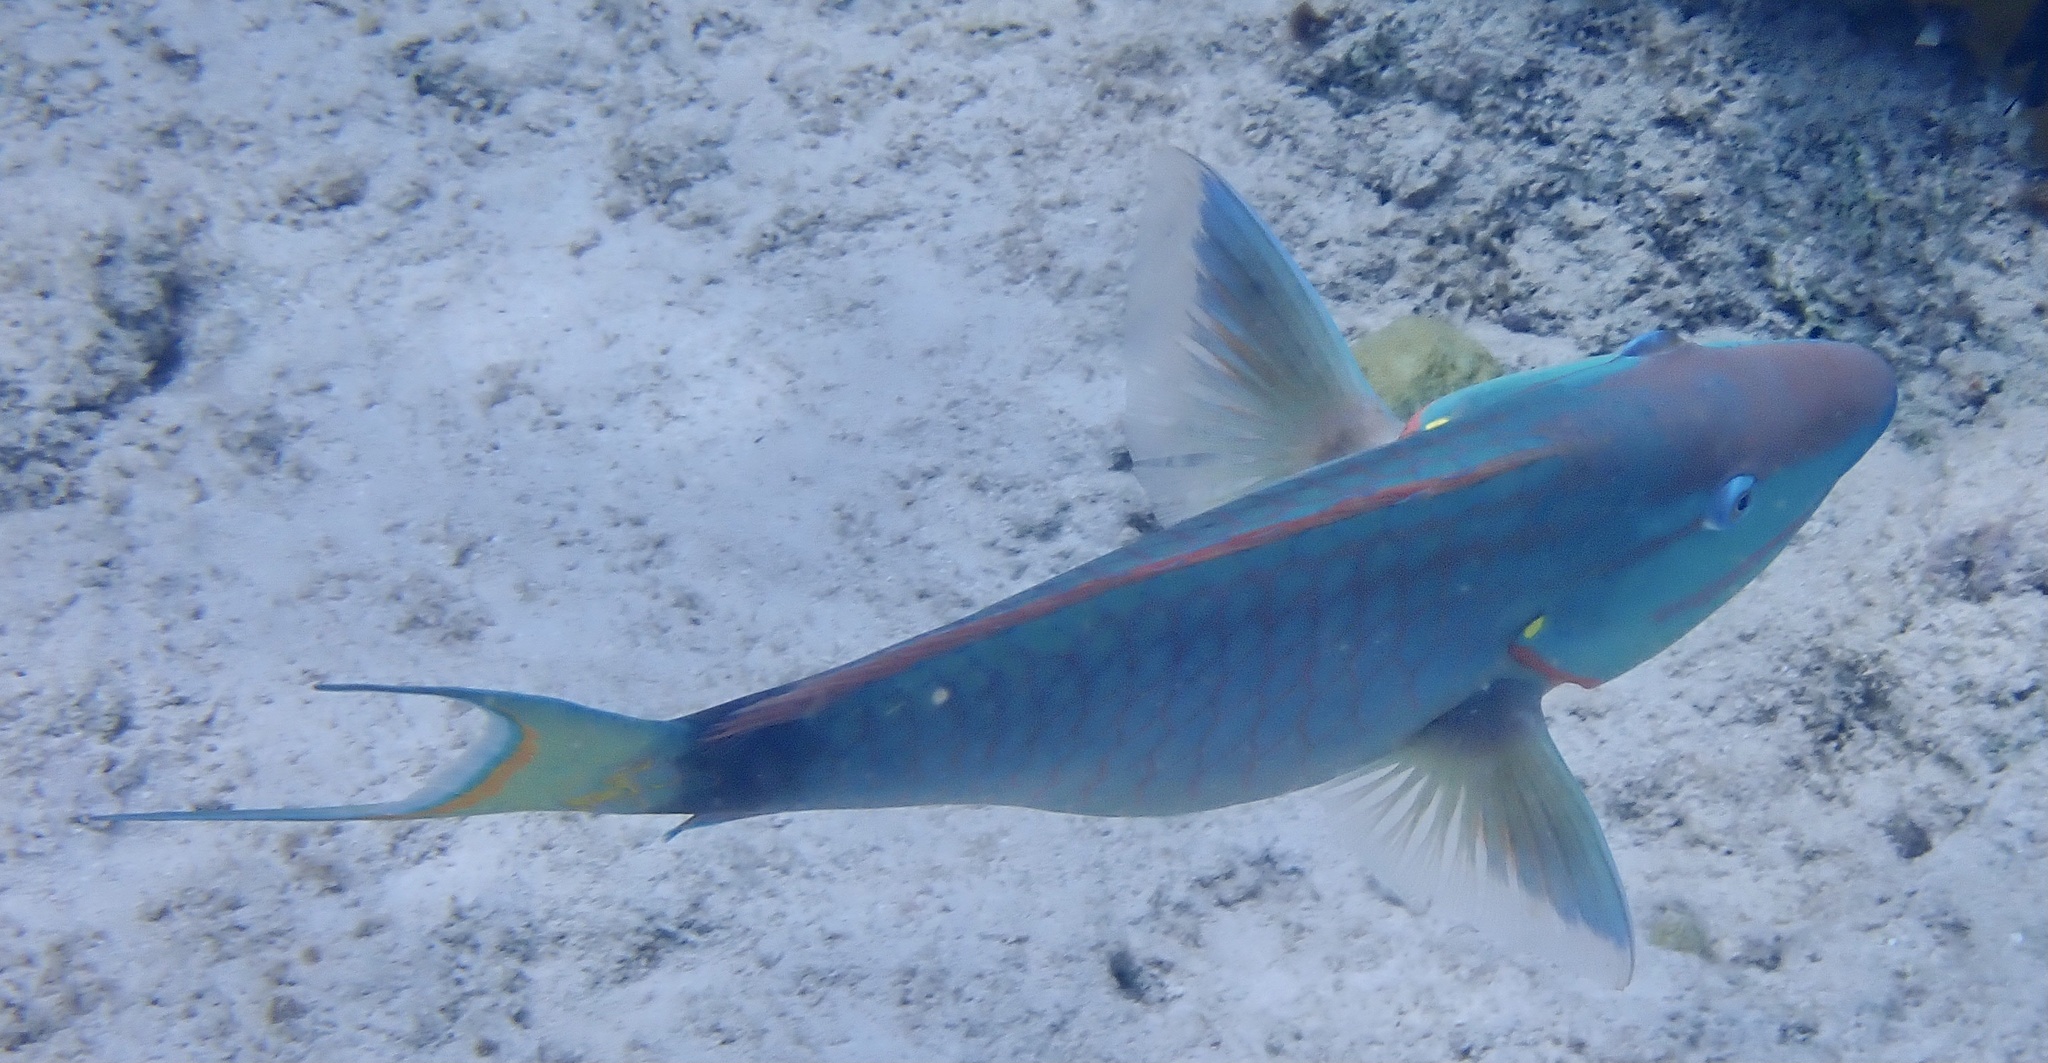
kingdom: Animalia
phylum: Chordata
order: Perciformes
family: Scaridae
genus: Sparisoma
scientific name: Sparisoma viride
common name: Stoplight parrotfish
